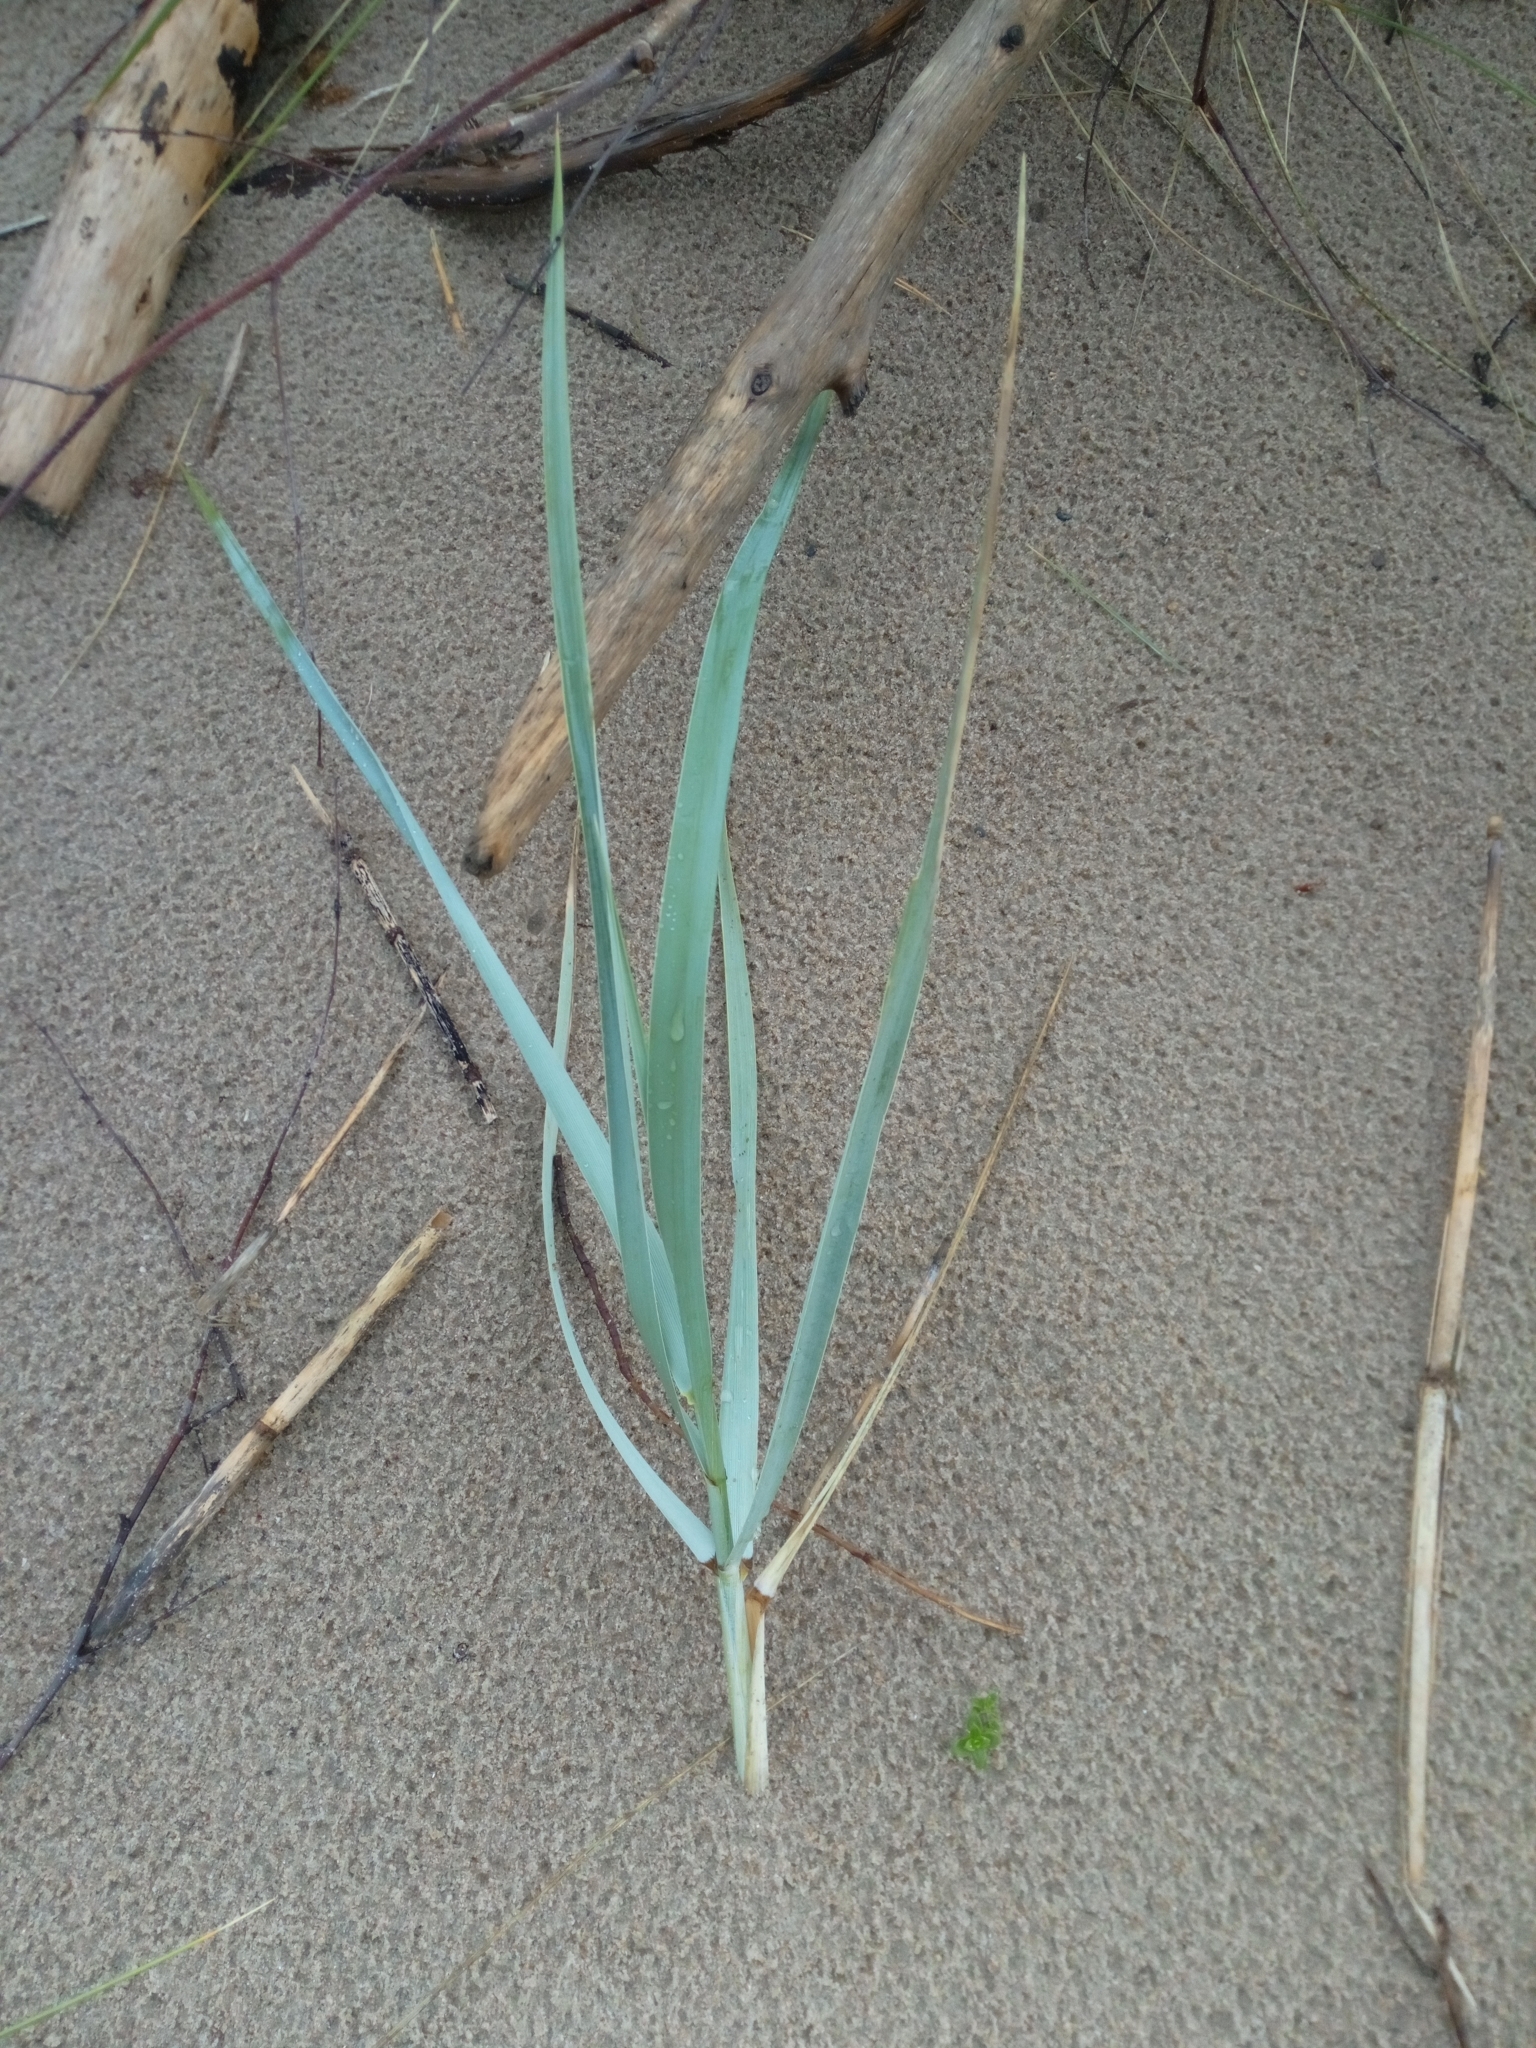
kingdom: Plantae
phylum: Tracheophyta
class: Liliopsida
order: Poales
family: Poaceae
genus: Leymus
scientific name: Leymus arenarius
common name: Lyme-grass
